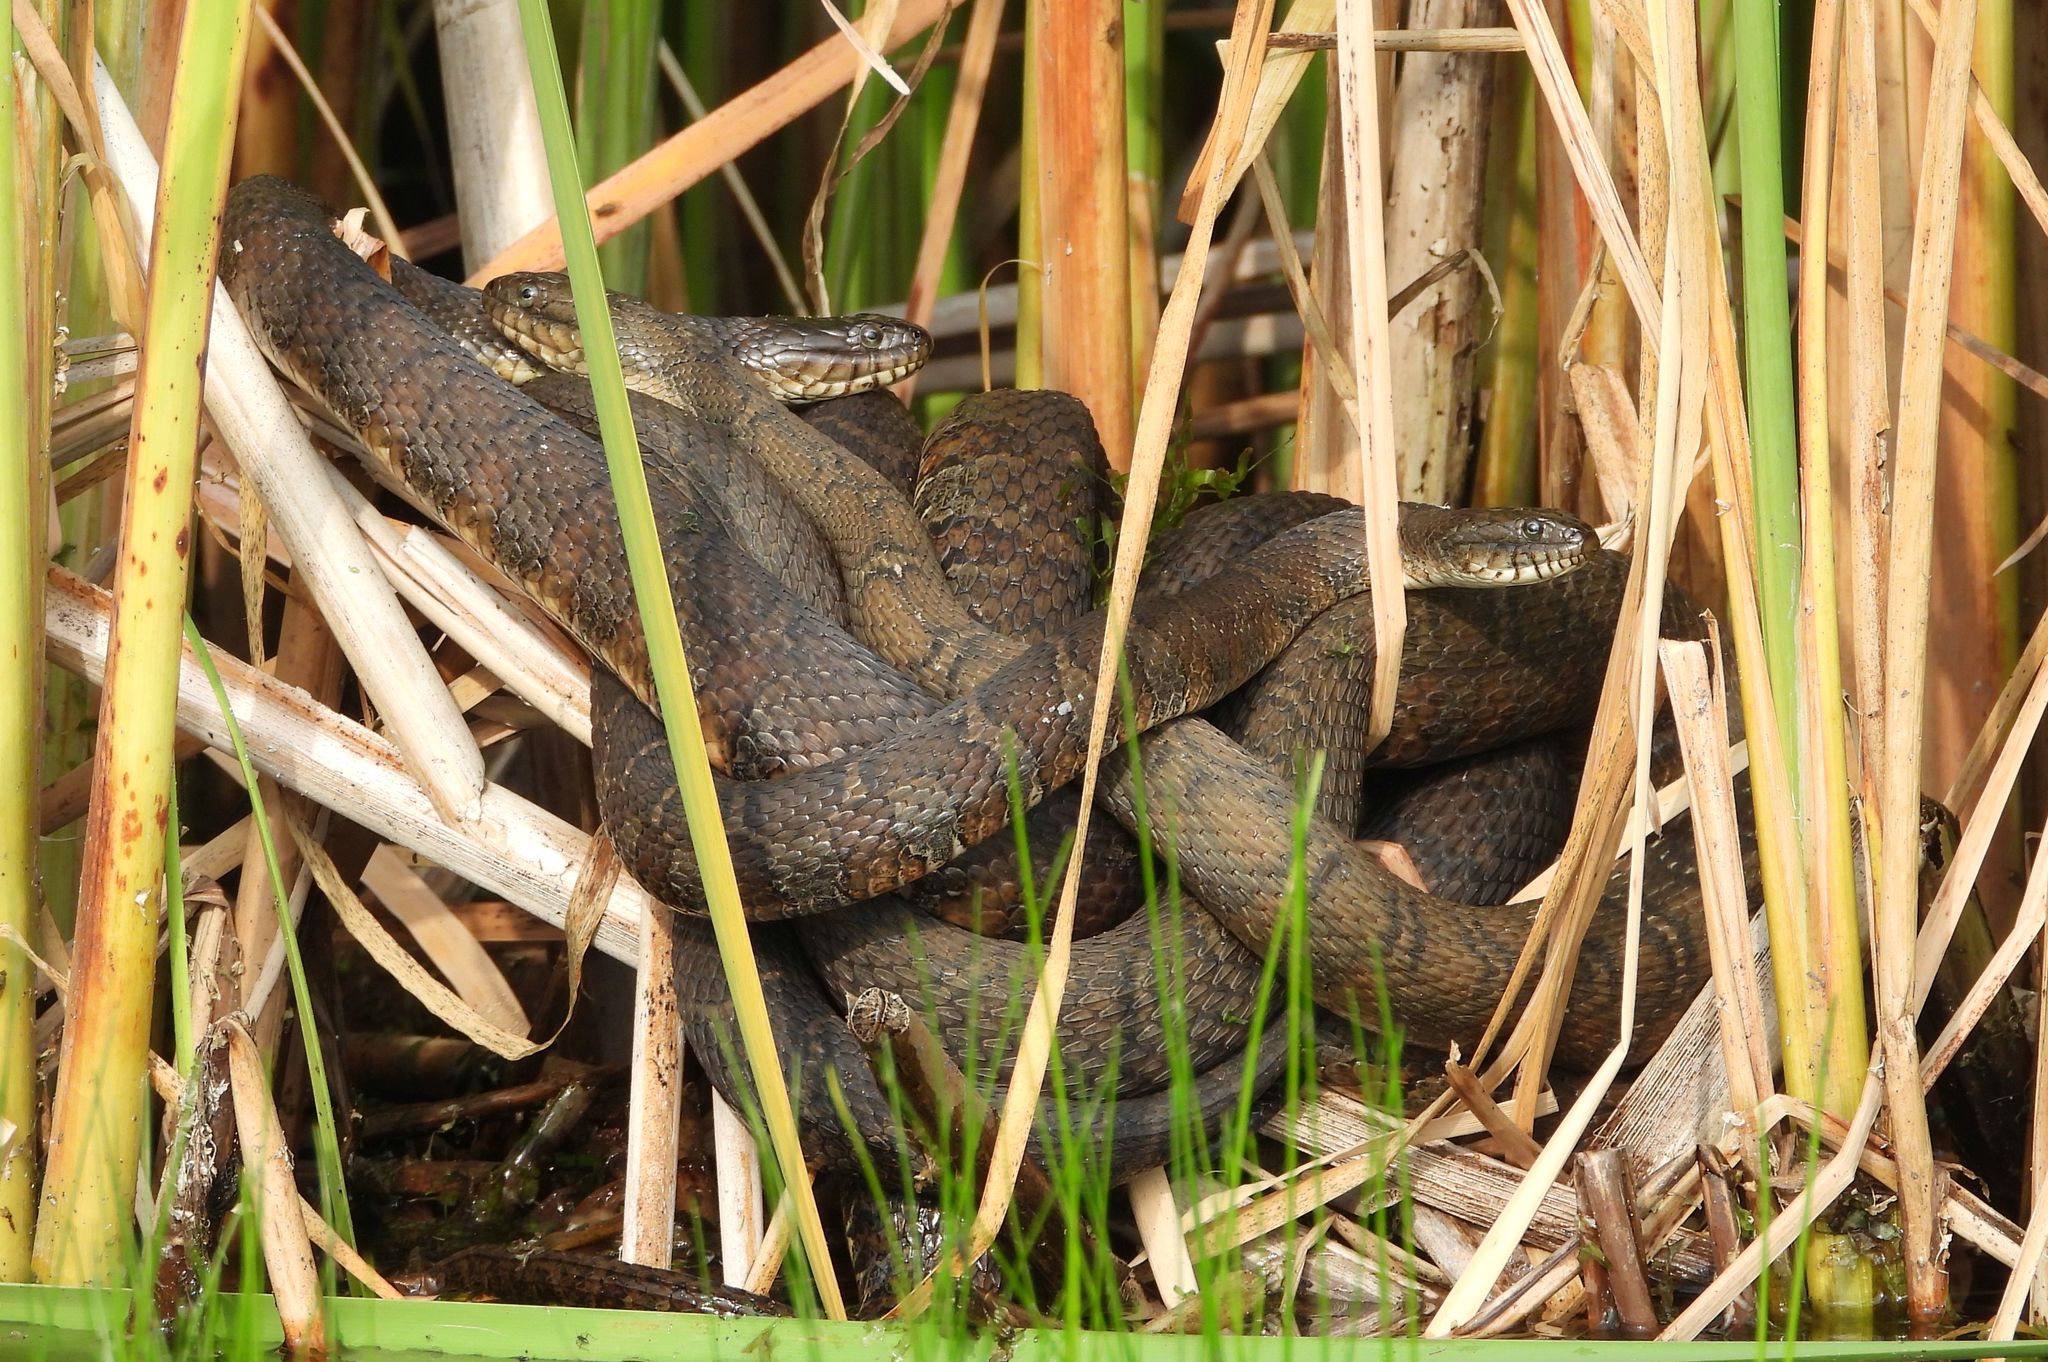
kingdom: Animalia
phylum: Chordata
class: Squamata
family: Colubridae
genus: Nerodia
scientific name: Nerodia sipedon
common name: Northern water snake
